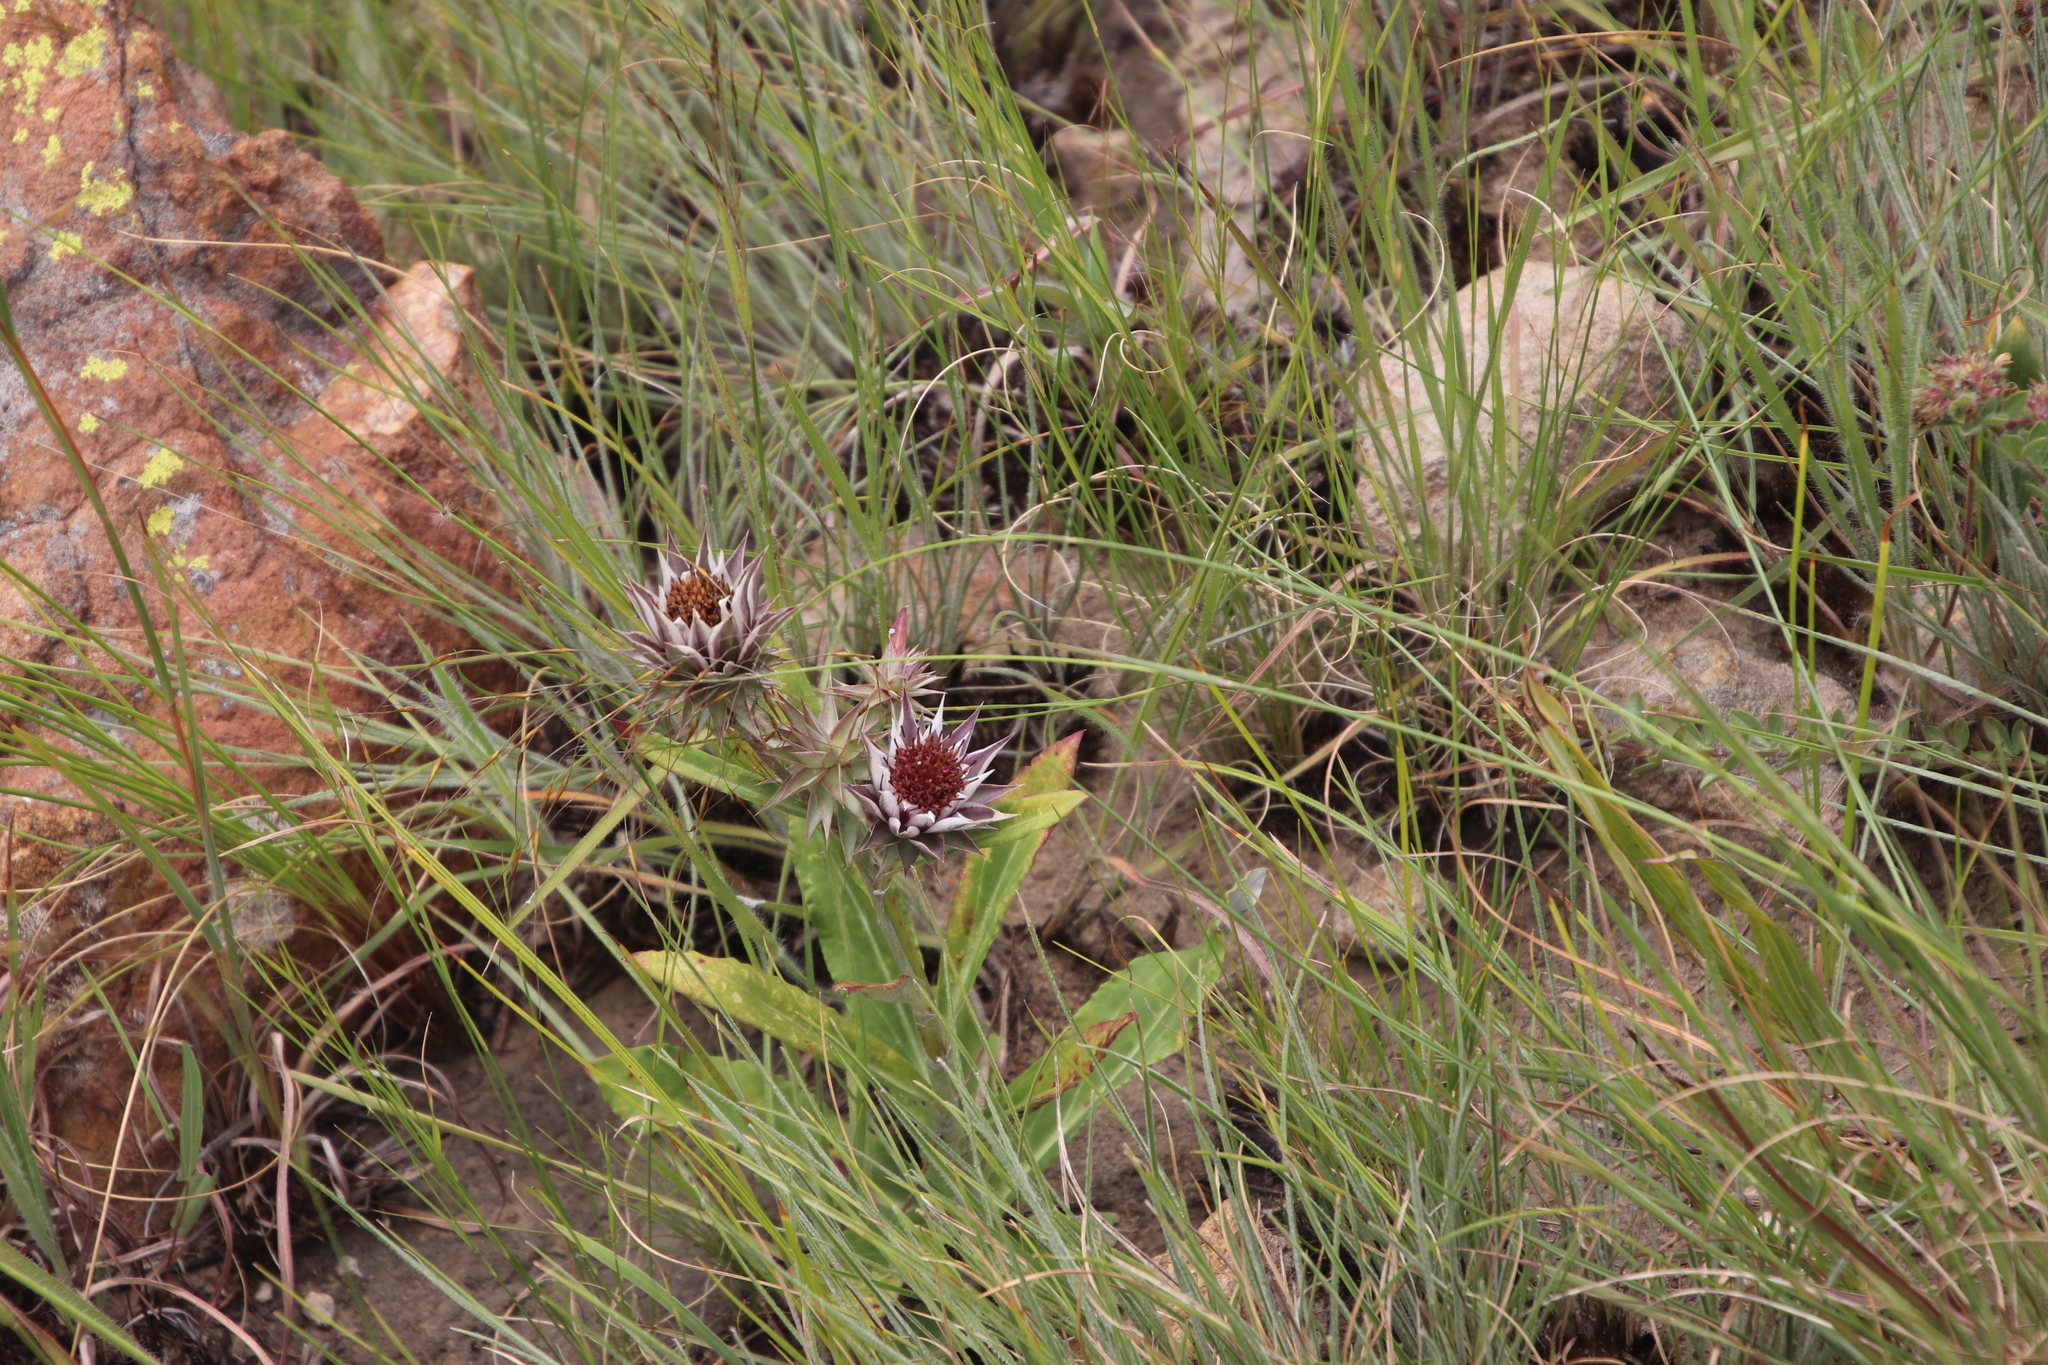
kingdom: Plantae
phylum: Tracheophyta
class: Magnoliopsida
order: Asterales
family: Asteraceae
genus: Macledium
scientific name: Macledium zeyheri
